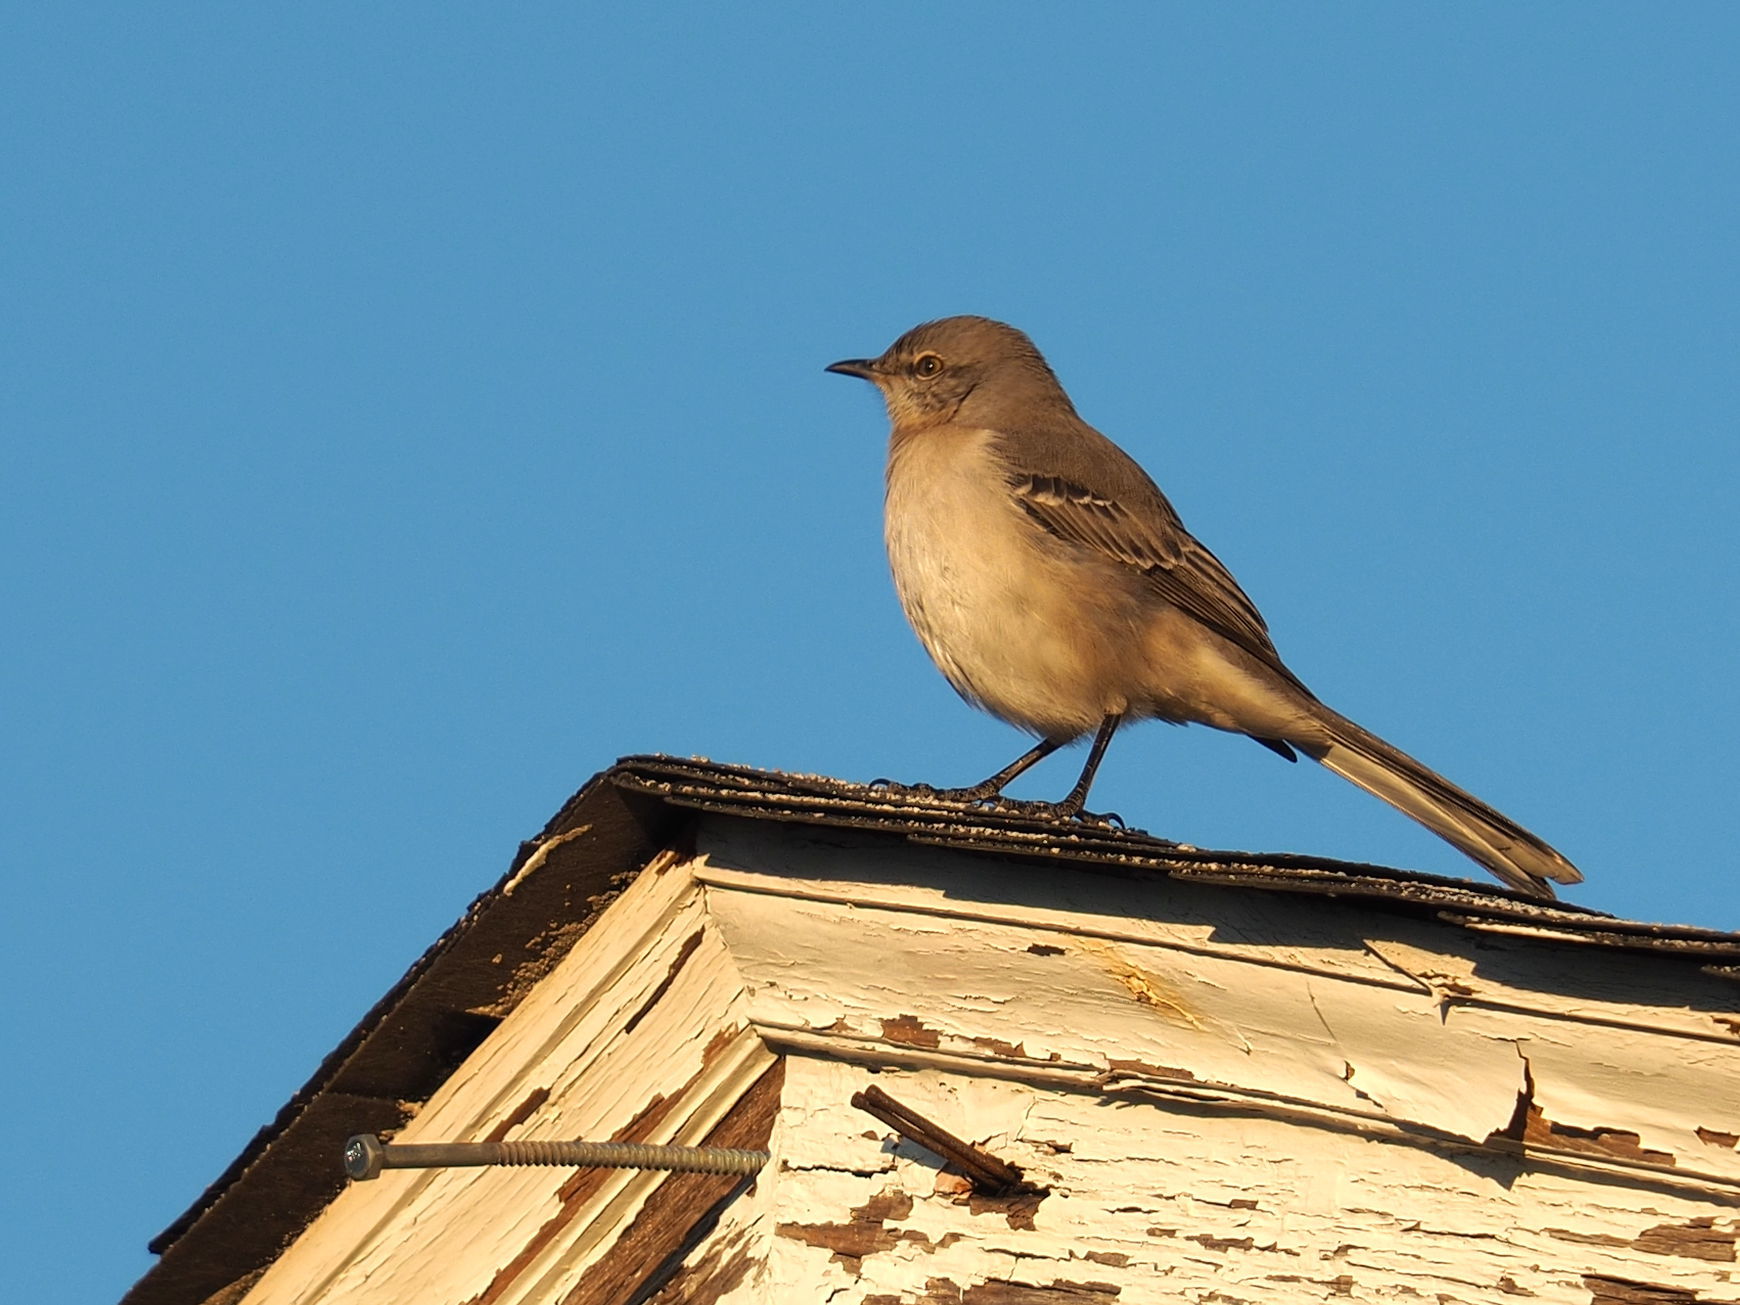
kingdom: Animalia
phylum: Chordata
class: Aves
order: Passeriformes
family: Mimidae
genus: Mimus
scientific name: Mimus polyglottos
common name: Northern mockingbird
